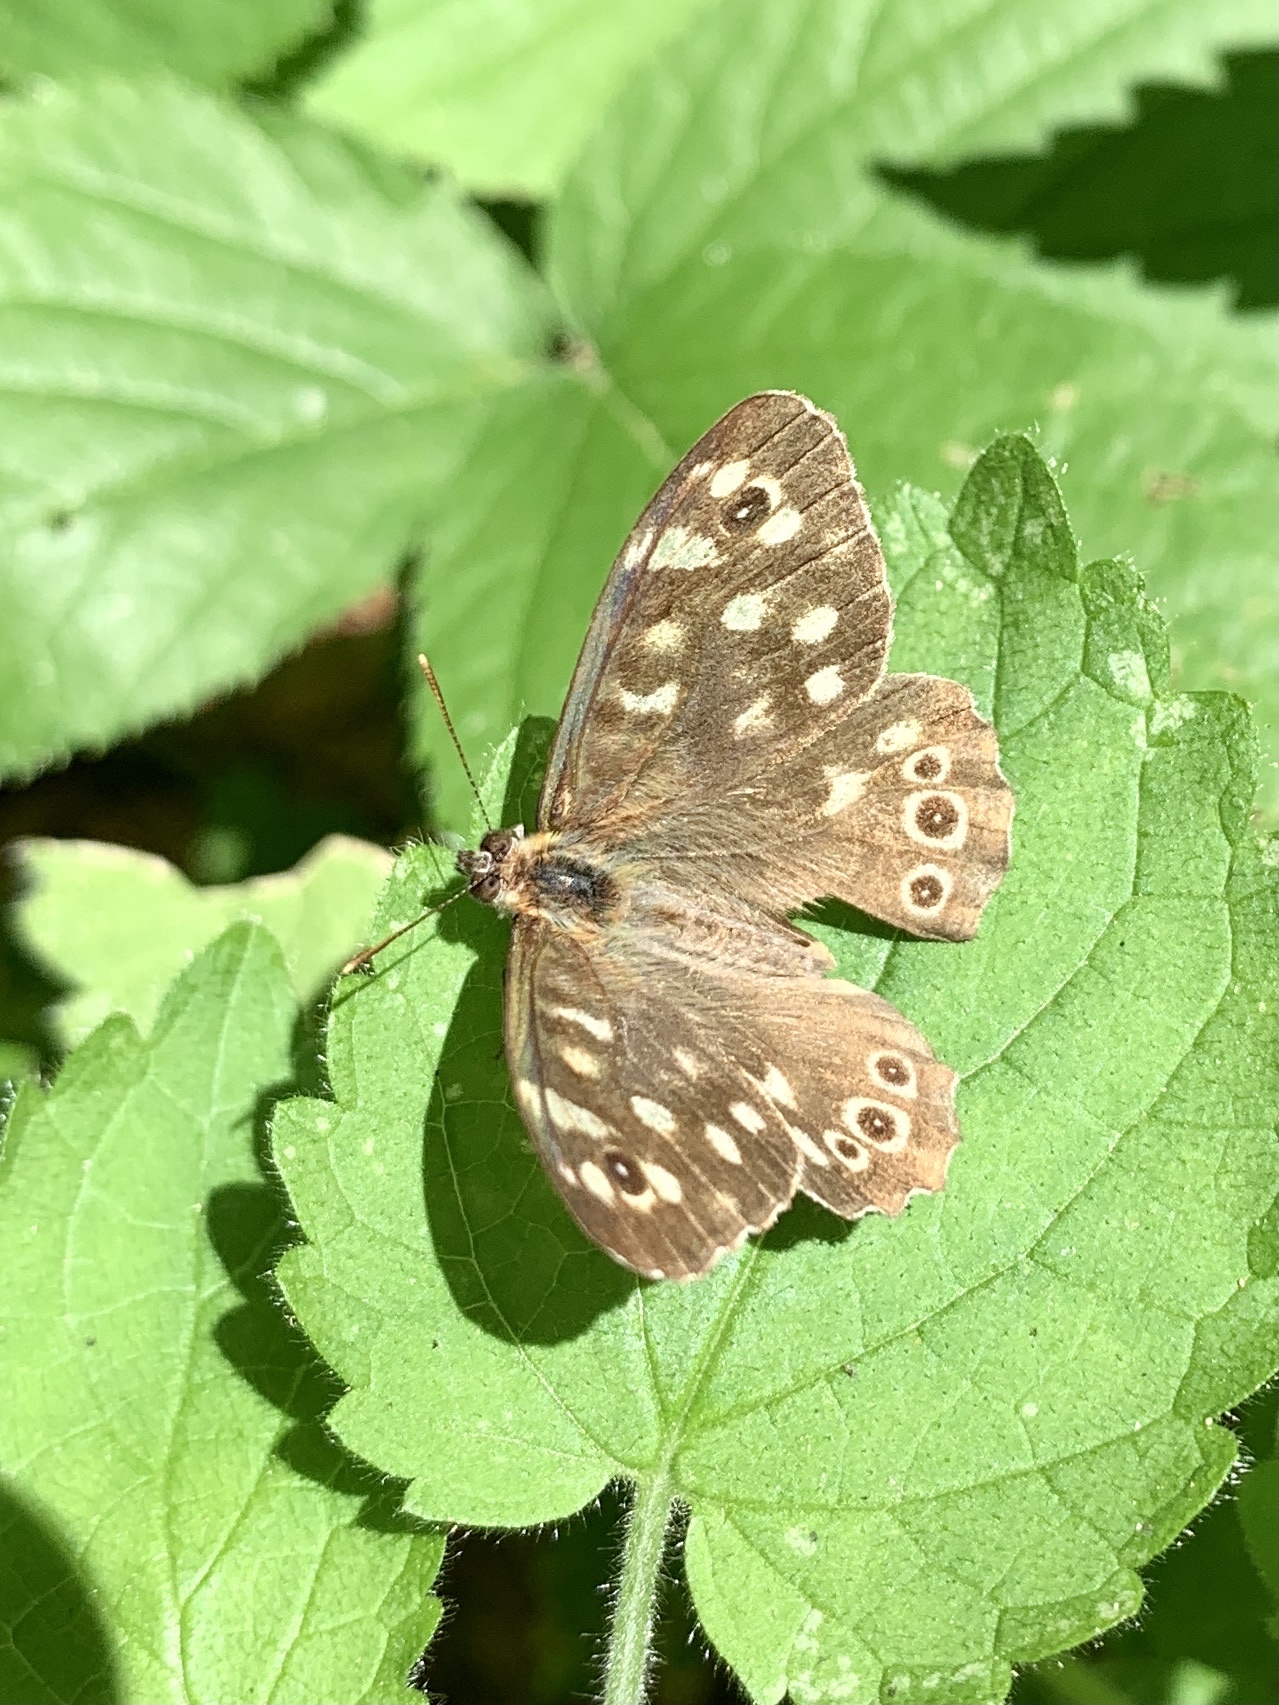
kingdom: Animalia
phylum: Arthropoda
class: Insecta
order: Lepidoptera
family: Nymphalidae
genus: Pararge
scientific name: Pararge aegeria
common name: Speckled wood
